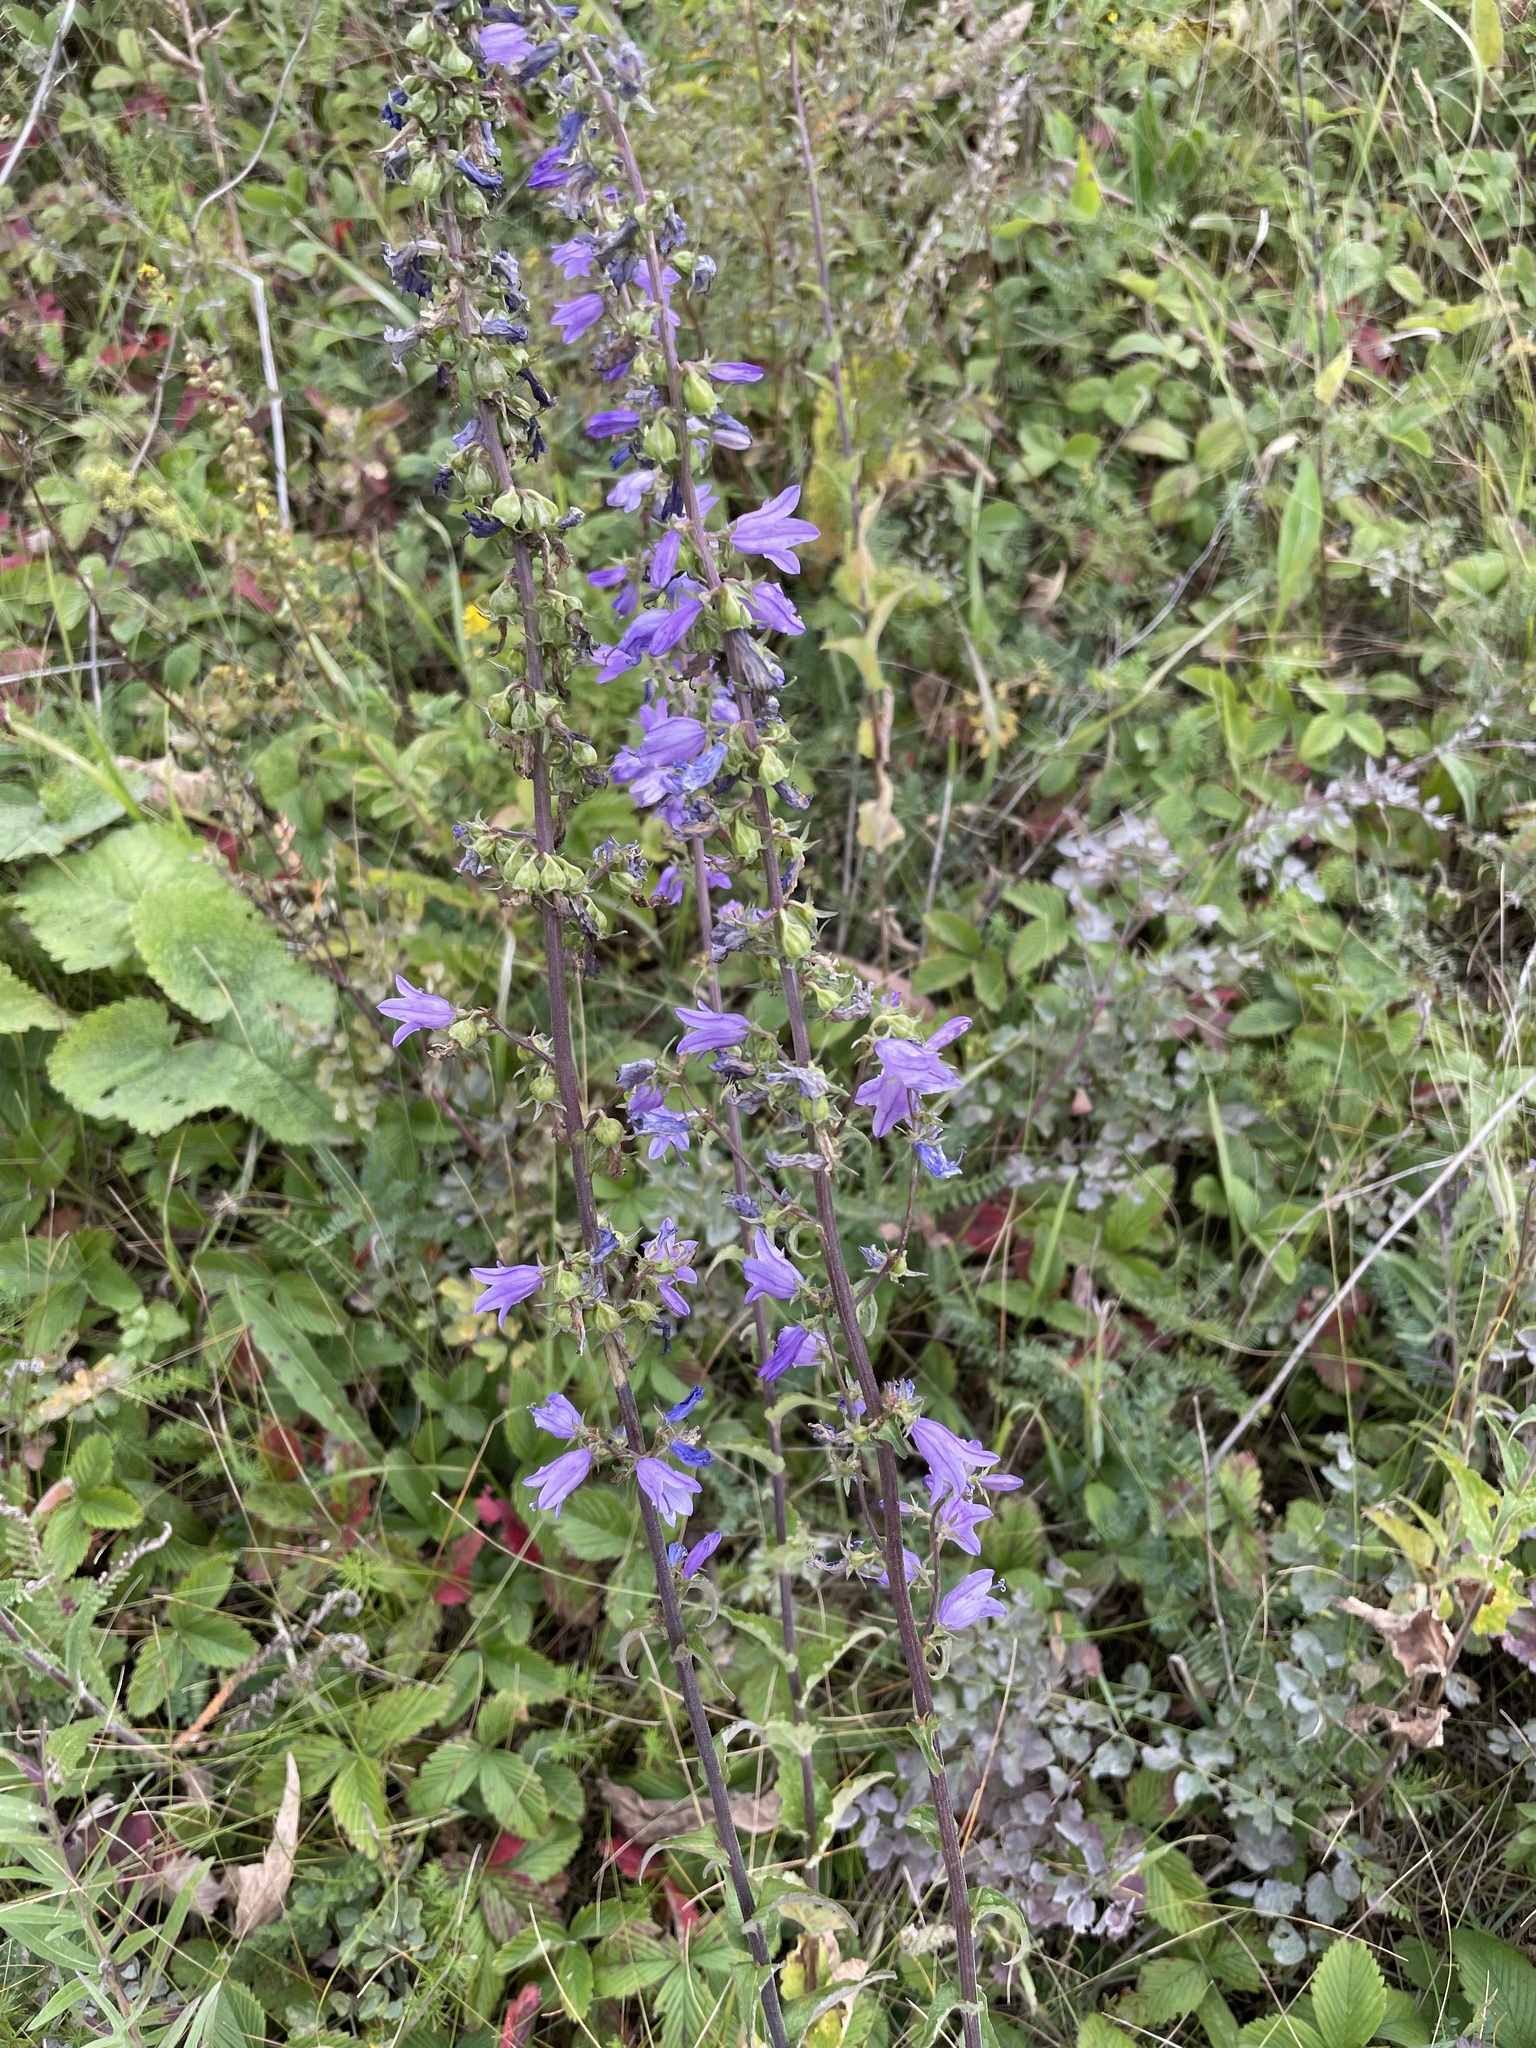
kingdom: Plantae
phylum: Tracheophyta
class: Magnoliopsida
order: Asterales
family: Campanulaceae
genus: Campanula
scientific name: Campanula bononiensis
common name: Pale bellflower
